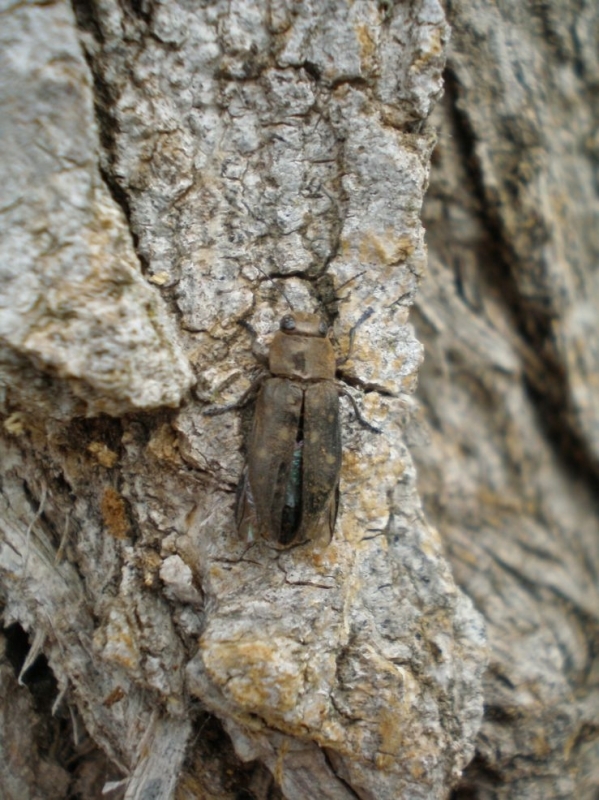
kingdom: Animalia
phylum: Arthropoda
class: Insecta
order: Coleoptera
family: Buprestidae
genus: Trachypteris
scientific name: Trachypteris picta
